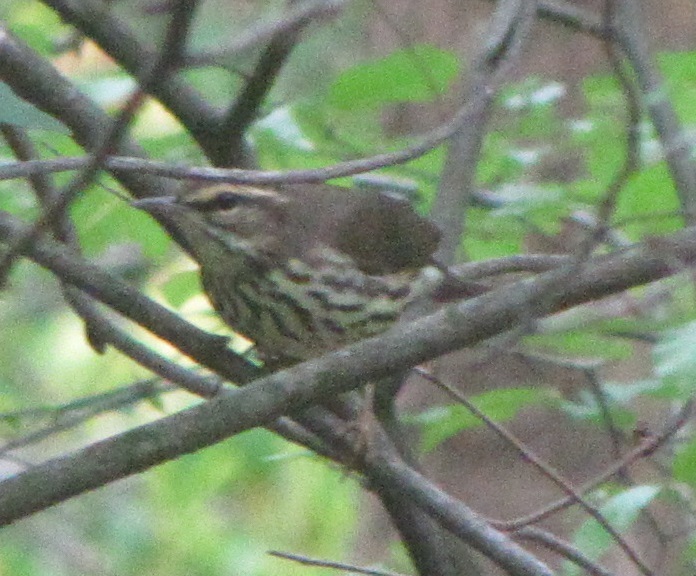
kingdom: Animalia
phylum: Chordata
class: Aves
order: Passeriformes
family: Parulidae
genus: Parkesia
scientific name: Parkesia noveboracensis
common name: Northern waterthrush
